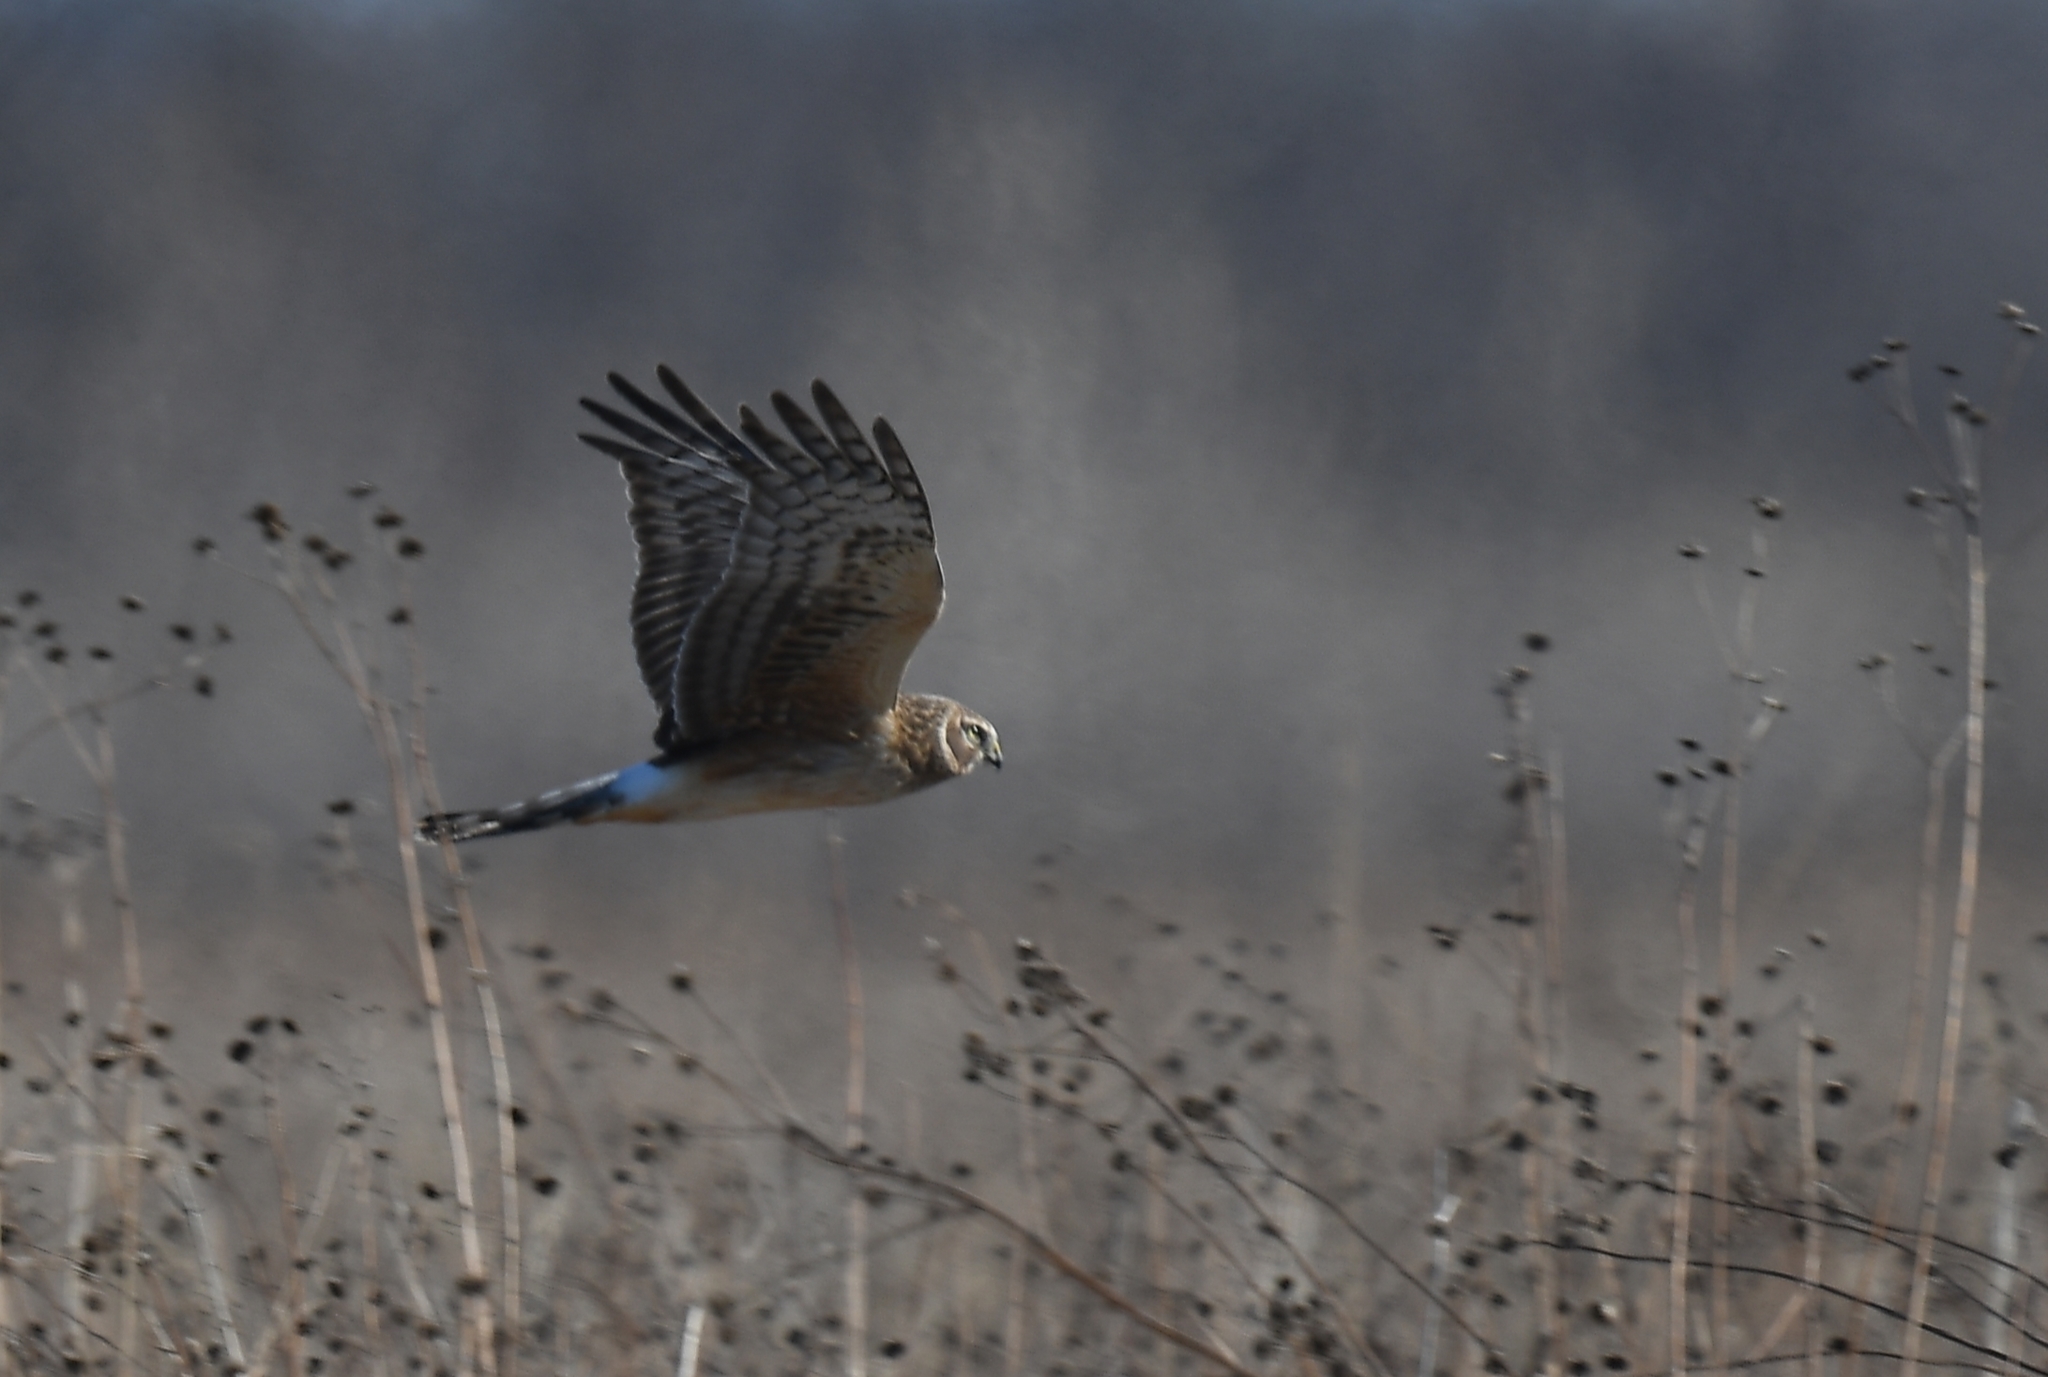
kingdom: Animalia
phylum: Chordata
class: Aves
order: Accipitriformes
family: Accipitridae
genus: Circus
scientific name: Circus cyaneus
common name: Hen harrier
